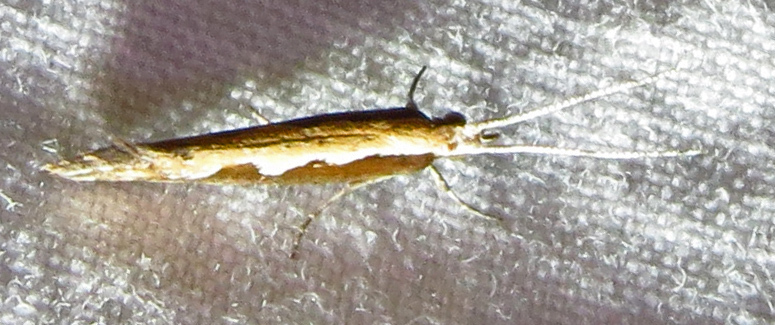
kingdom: Animalia
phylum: Arthropoda
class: Insecta
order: Lepidoptera
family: Plutellidae
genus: Plutella
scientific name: Plutella xylostella
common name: Diamond-back moth
